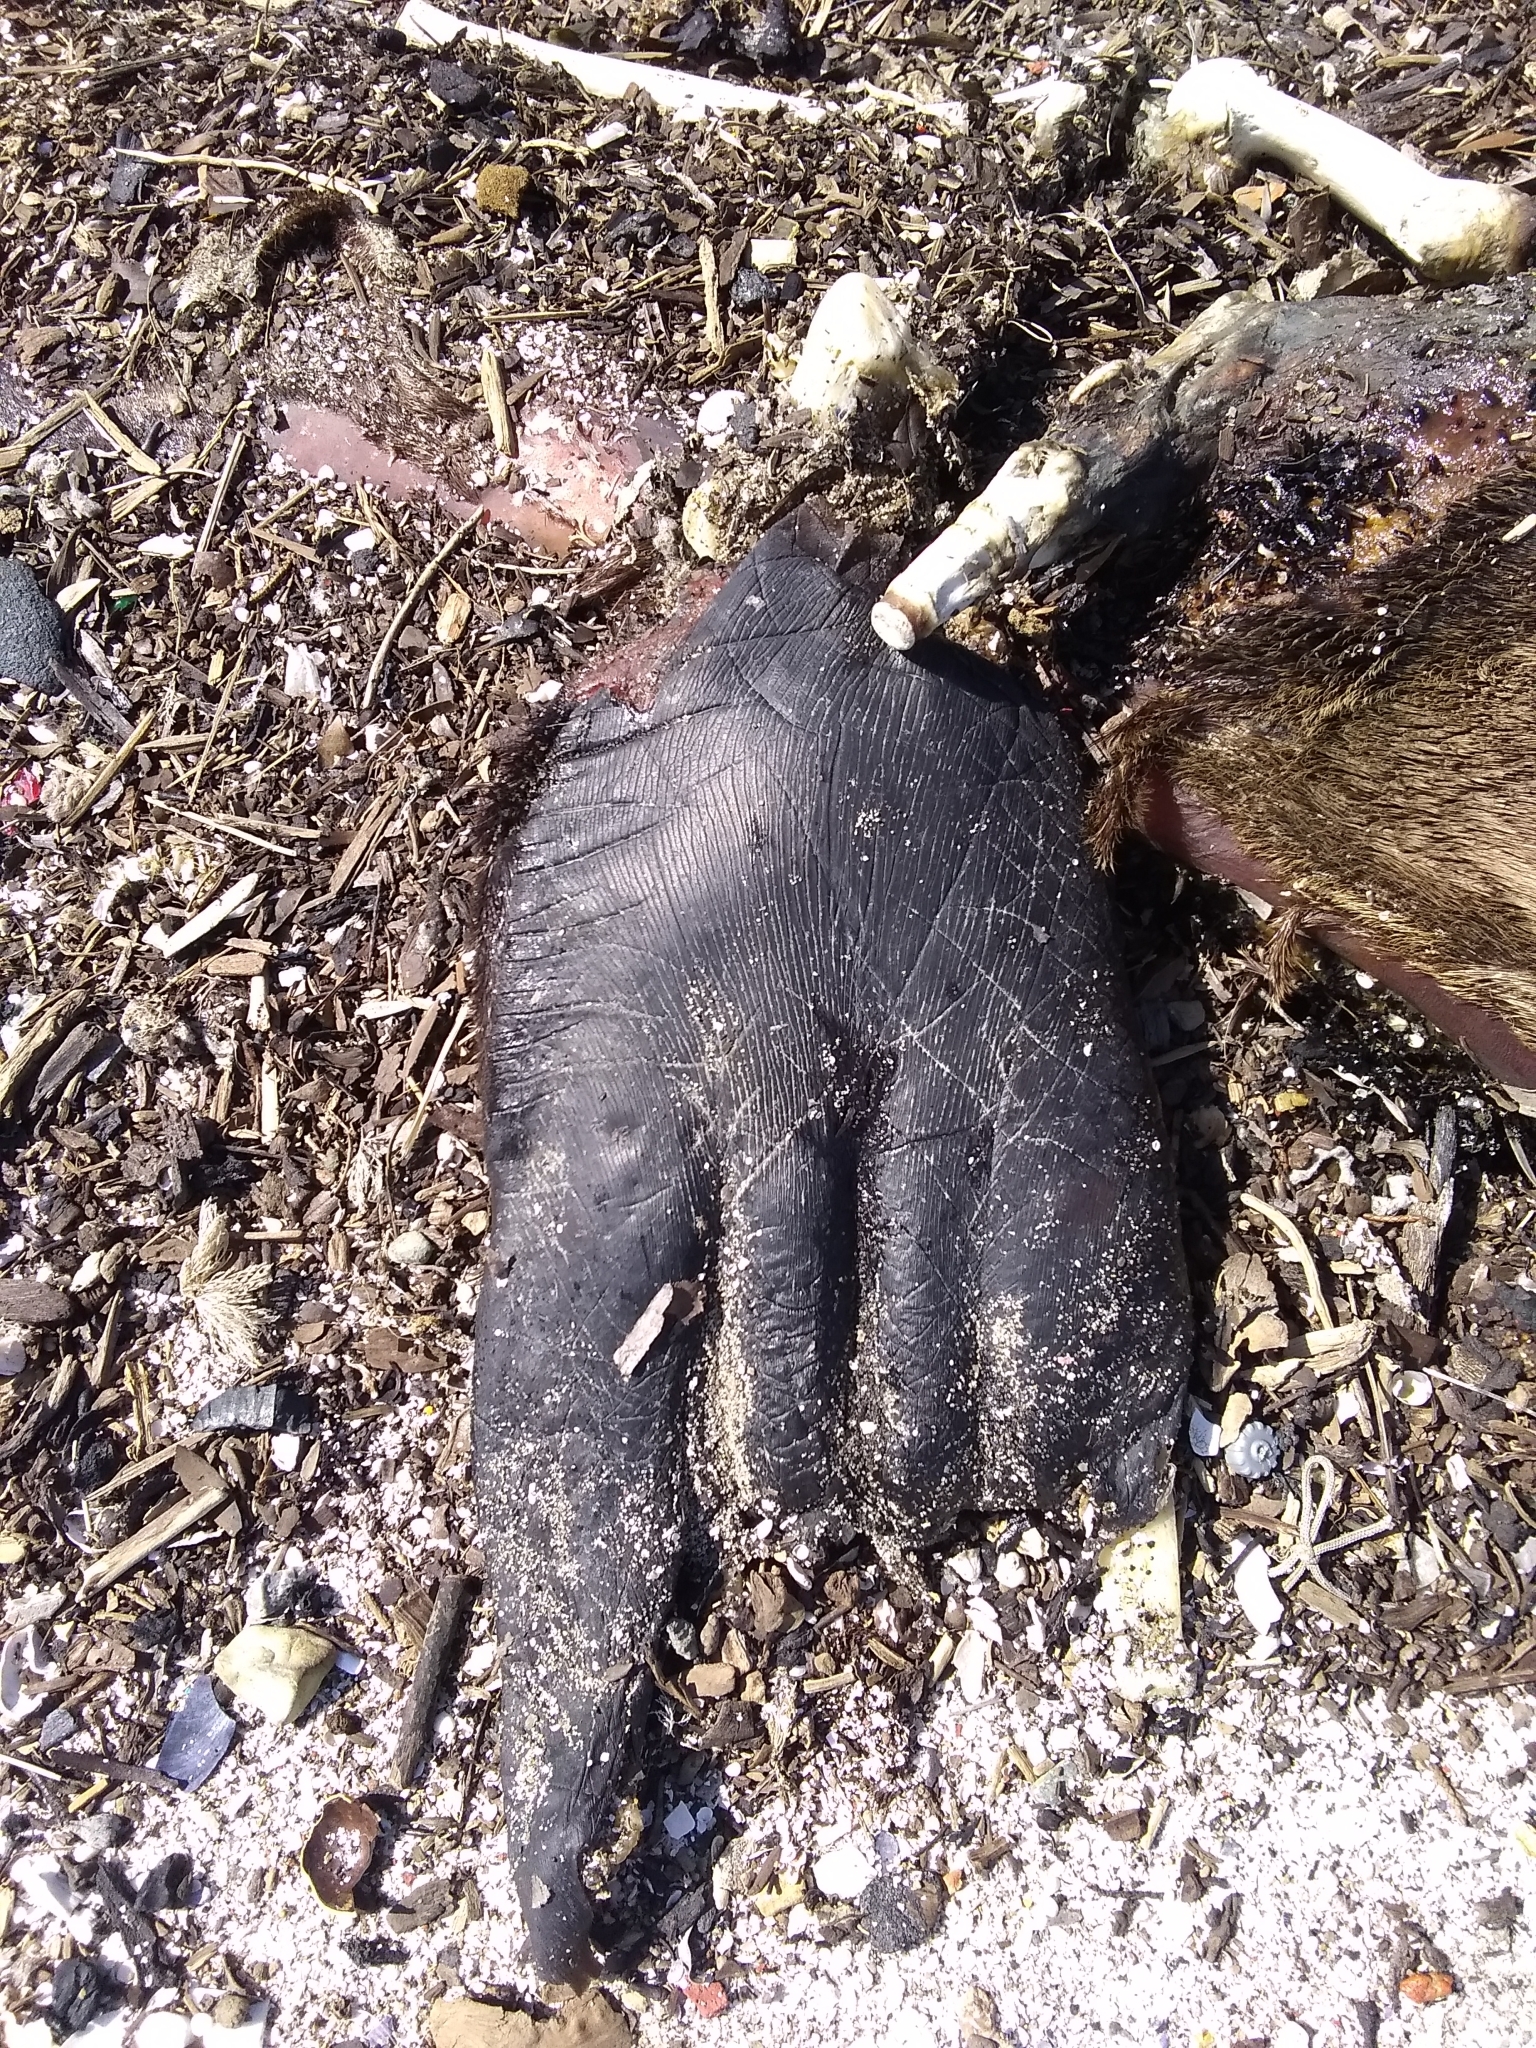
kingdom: Animalia
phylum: Chordata
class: Mammalia
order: Carnivora
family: Otariidae
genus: Zalophus
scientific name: Zalophus californianus
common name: California sea lion
